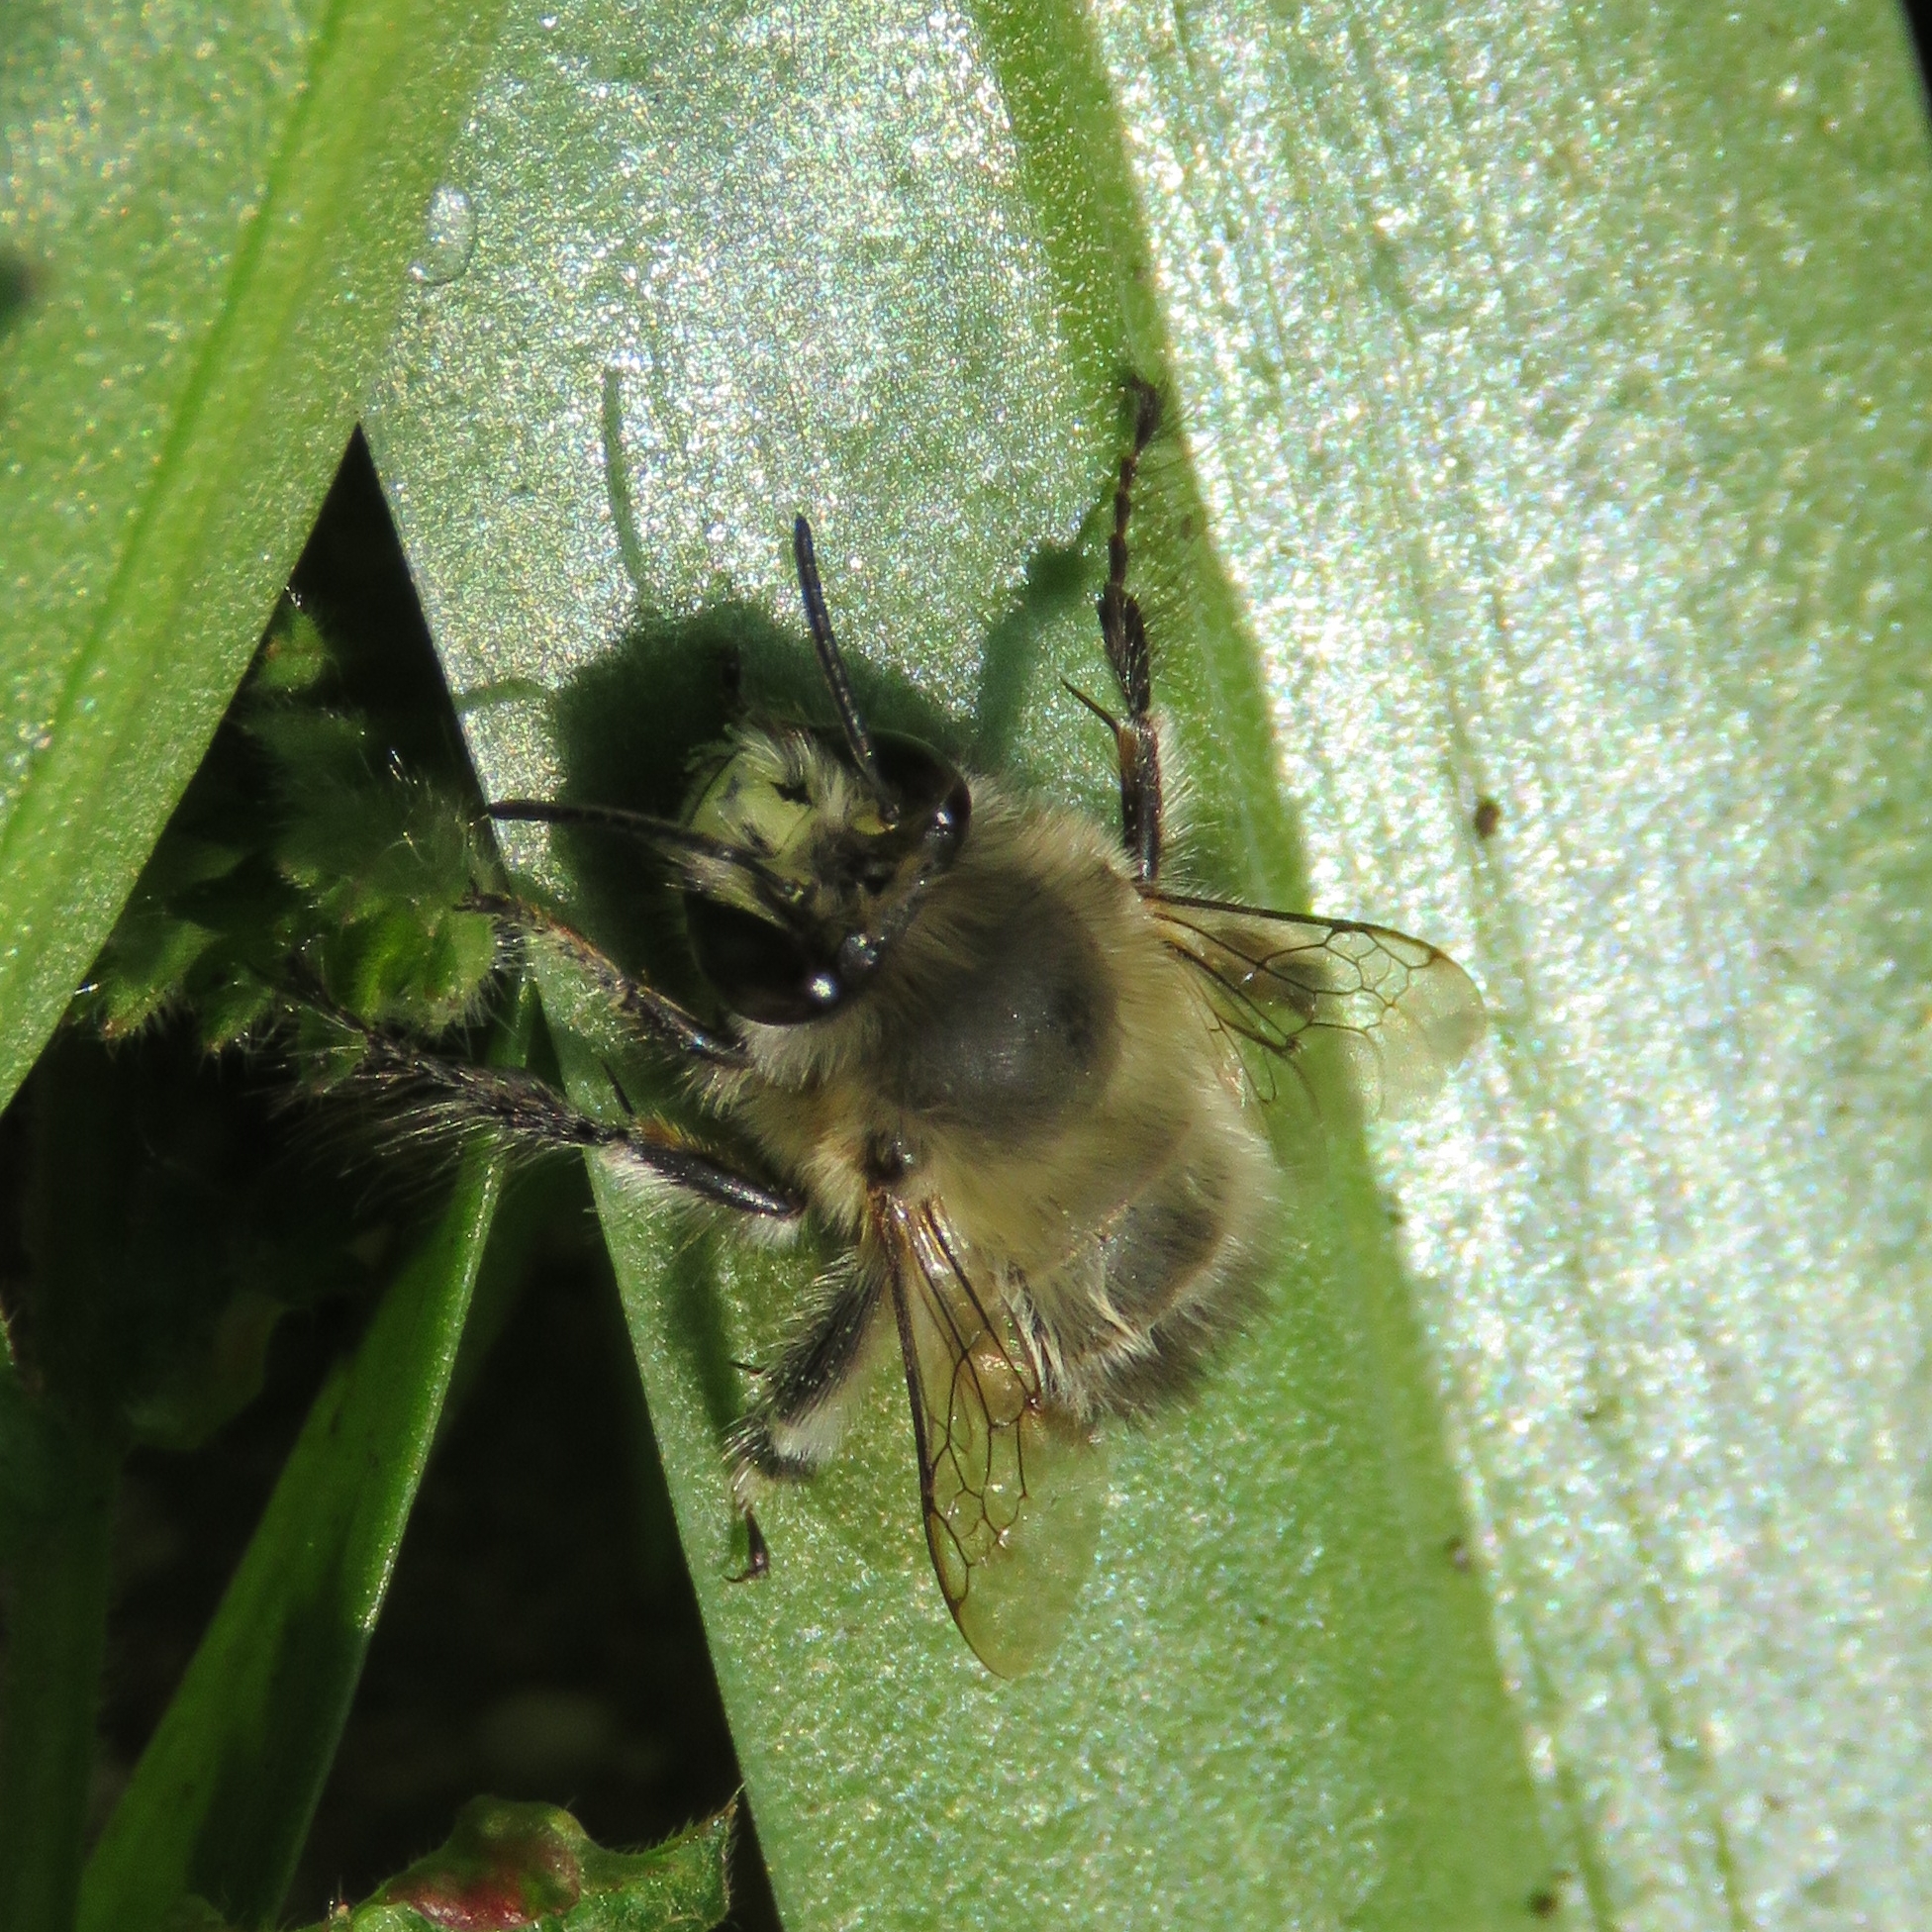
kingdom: Animalia
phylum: Arthropoda
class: Insecta
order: Hymenoptera
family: Apidae
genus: Anthophora
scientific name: Anthophora plumipes
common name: Hairy-footed flower bee
